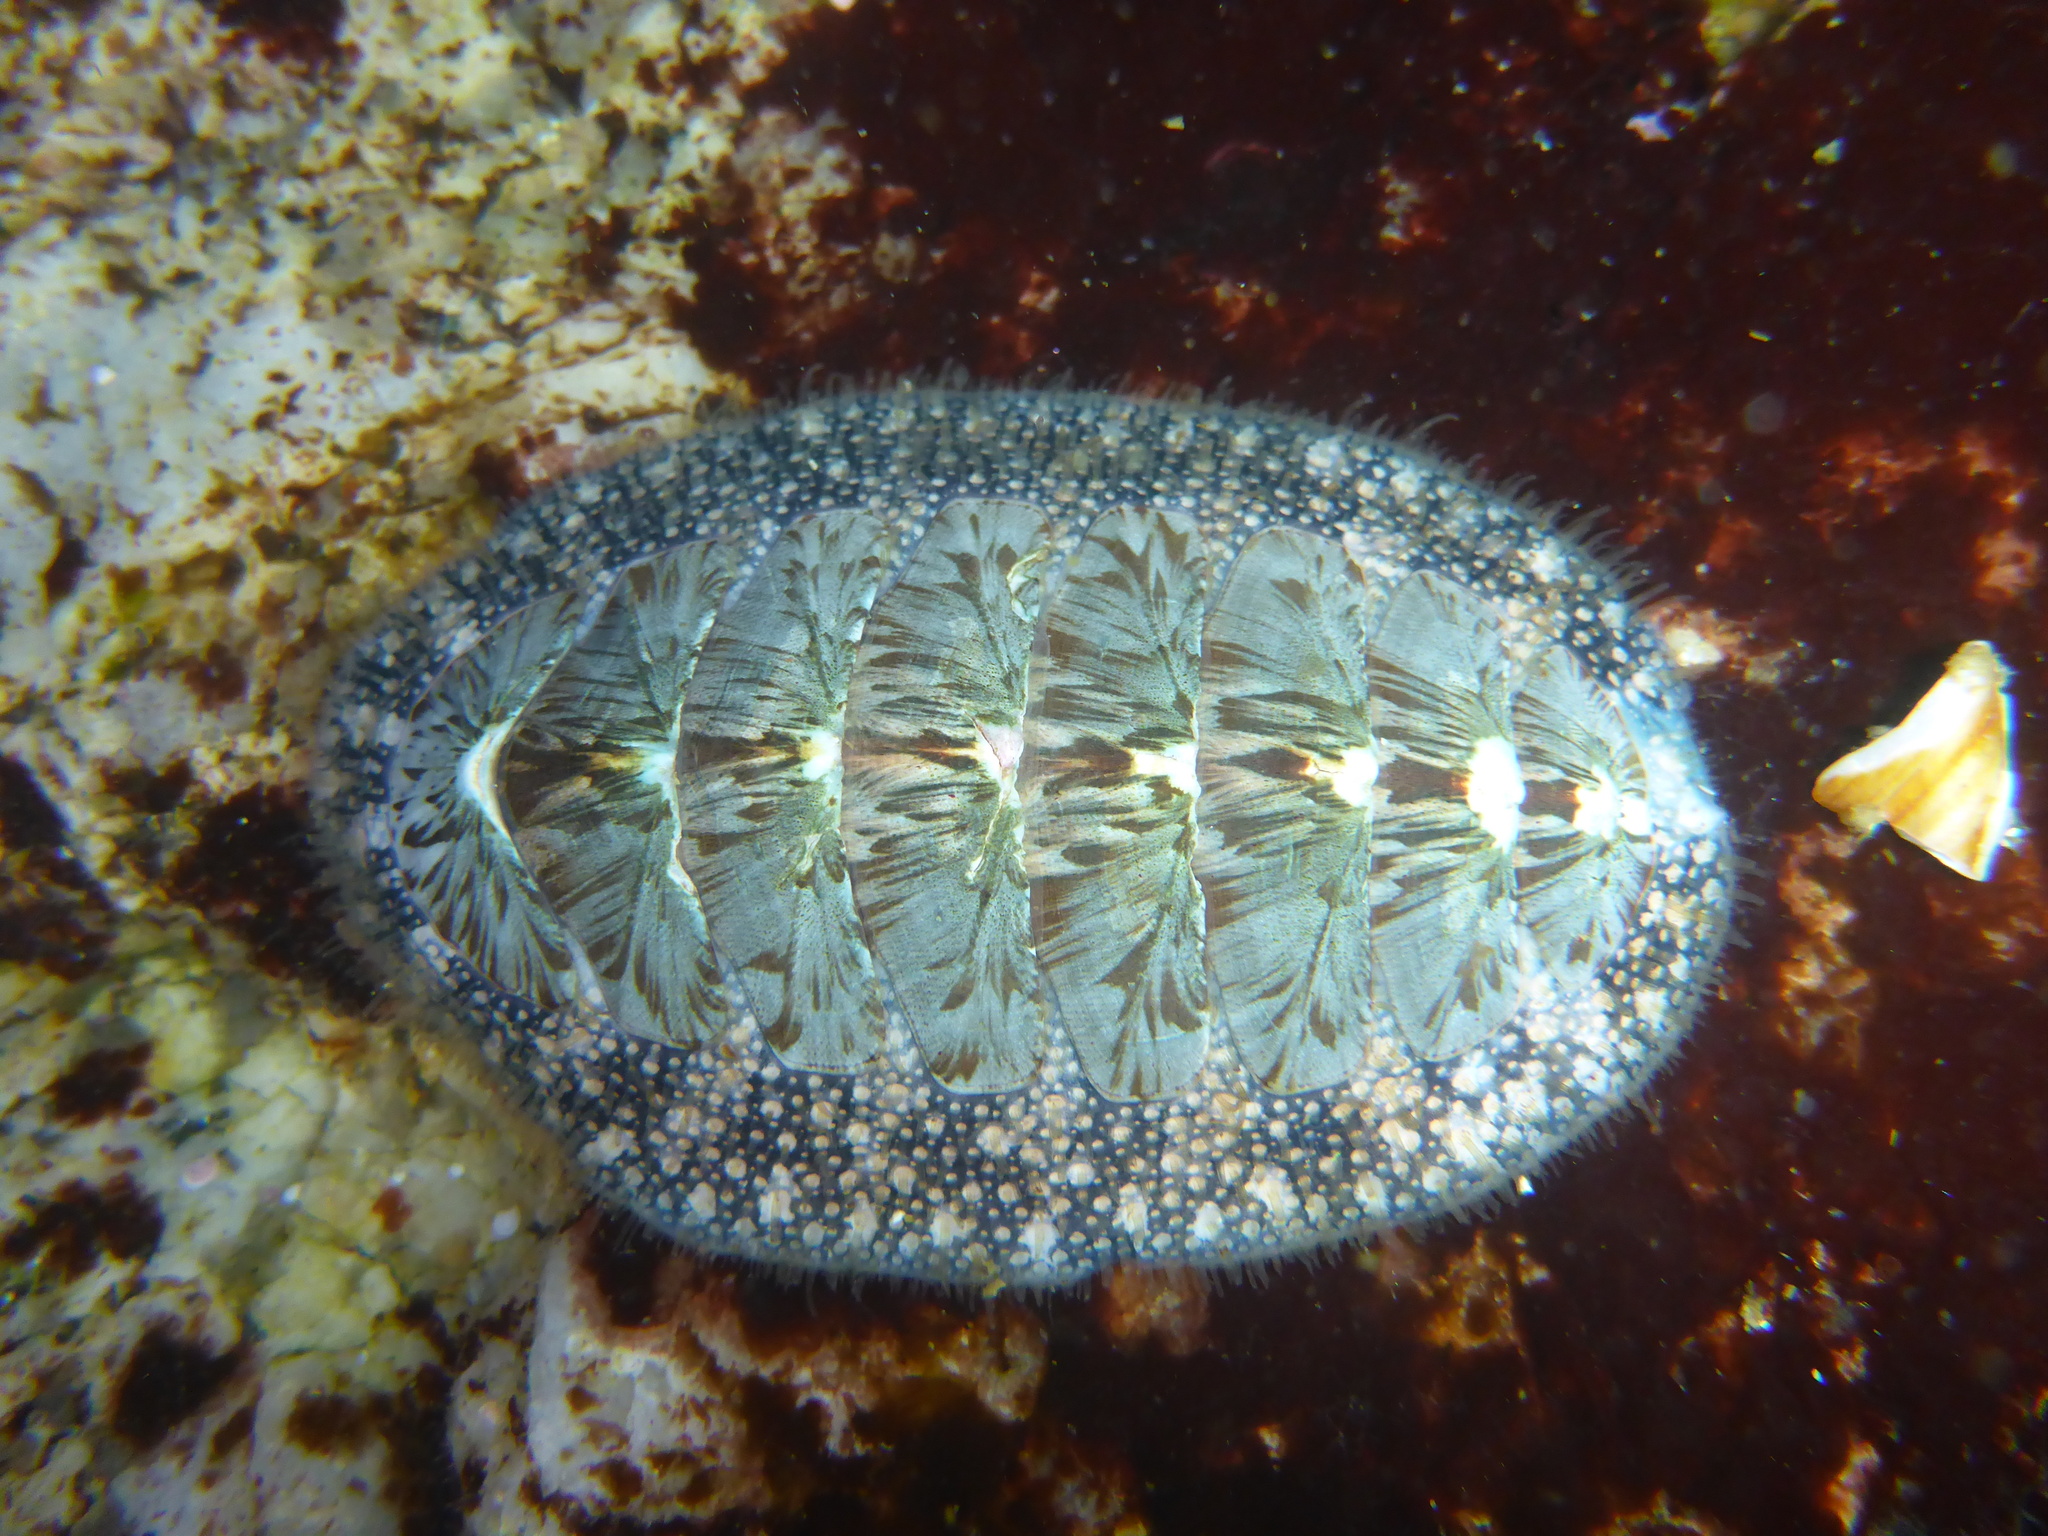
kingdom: Animalia
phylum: Mollusca
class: Polyplacophora
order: Chitonida
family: Mopaliidae
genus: Mopalia
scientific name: Mopalia lignosa
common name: Woody chiton
